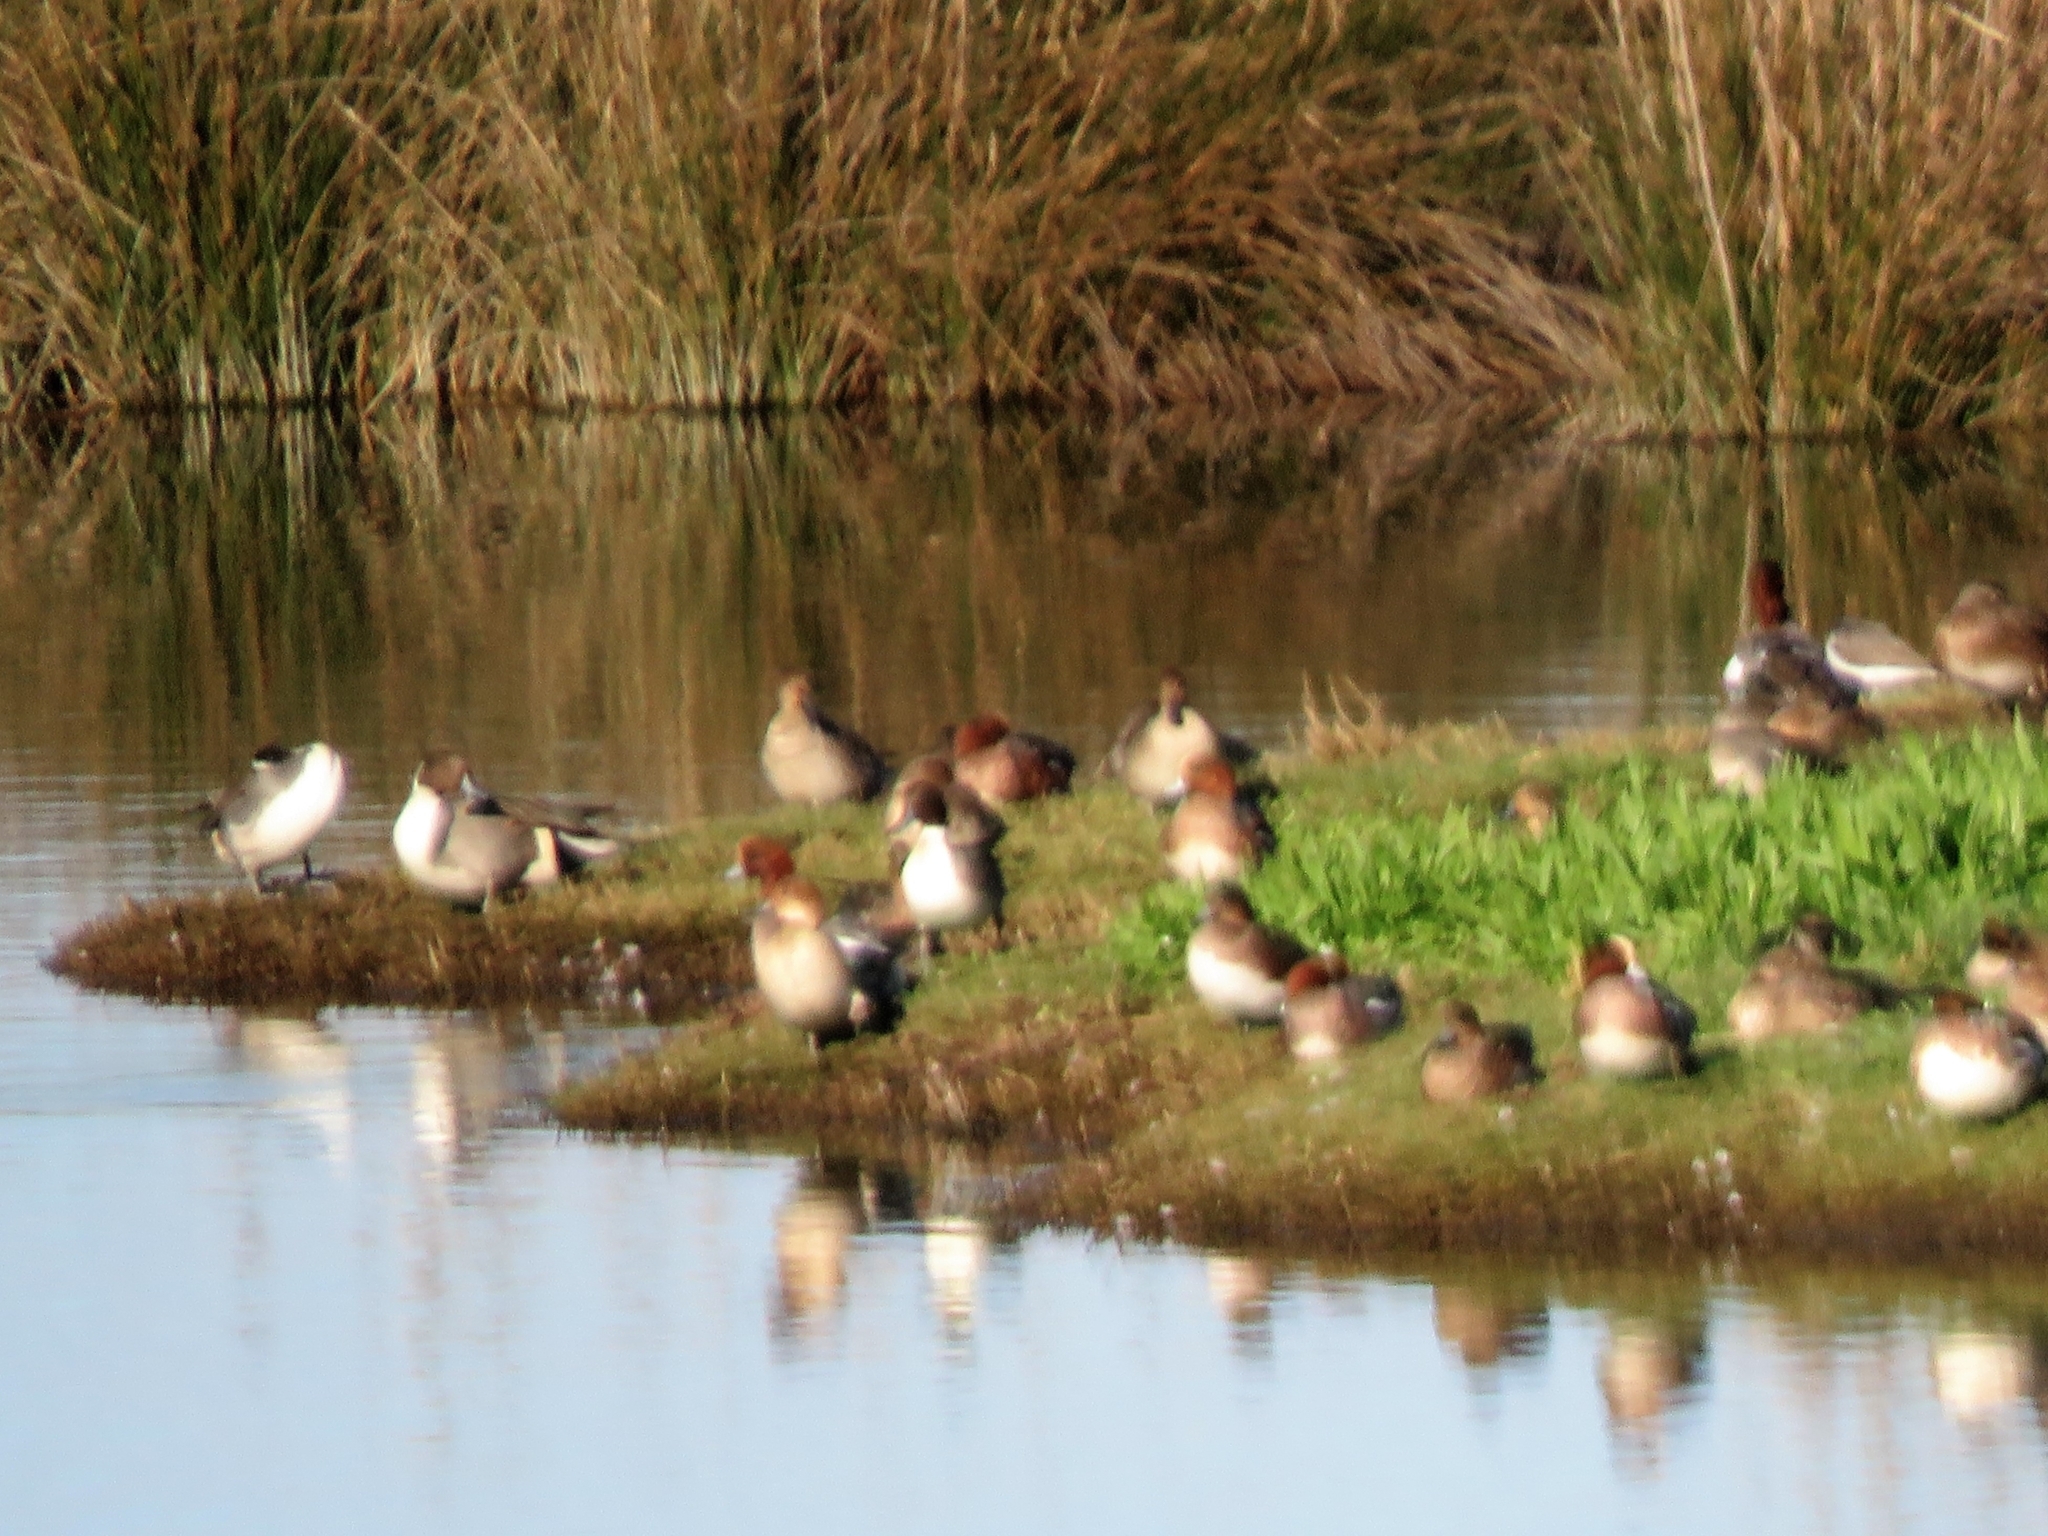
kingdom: Animalia
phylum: Chordata
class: Aves
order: Anseriformes
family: Anatidae
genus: Anas
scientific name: Anas acuta
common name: Northern pintail
